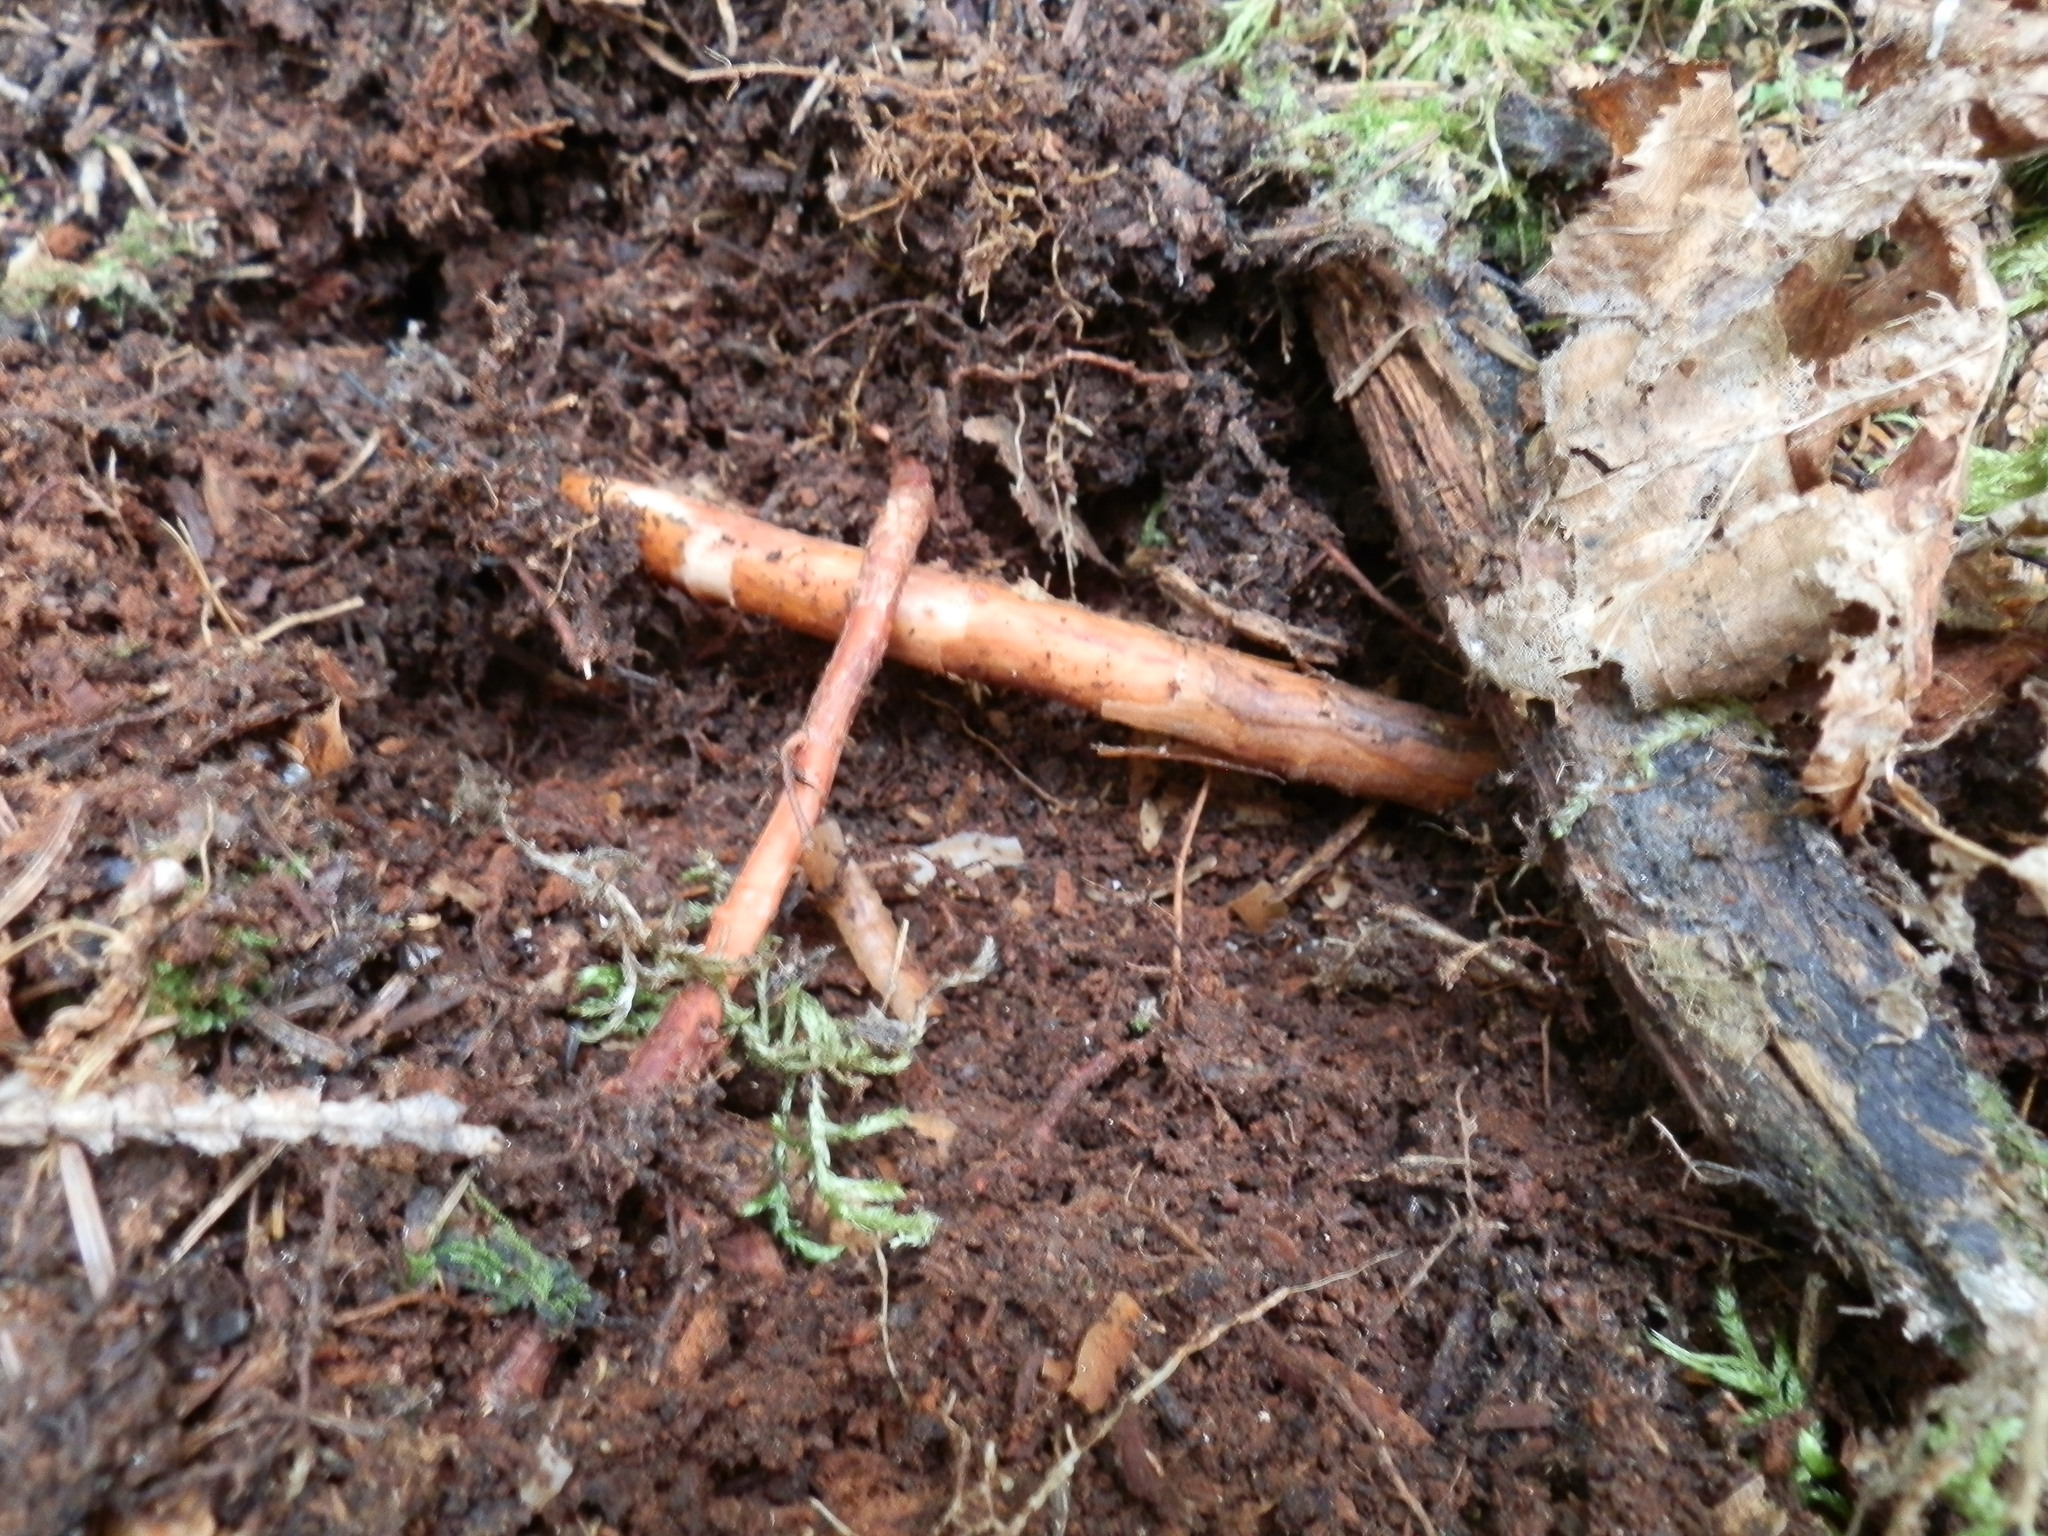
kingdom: Fungi
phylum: Basidiomycota
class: Agaricomycetes
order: Agaricales
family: Amanitaceae
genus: Amanita
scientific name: Amanita rhacopus
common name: Shaggy legged ringless amanita
